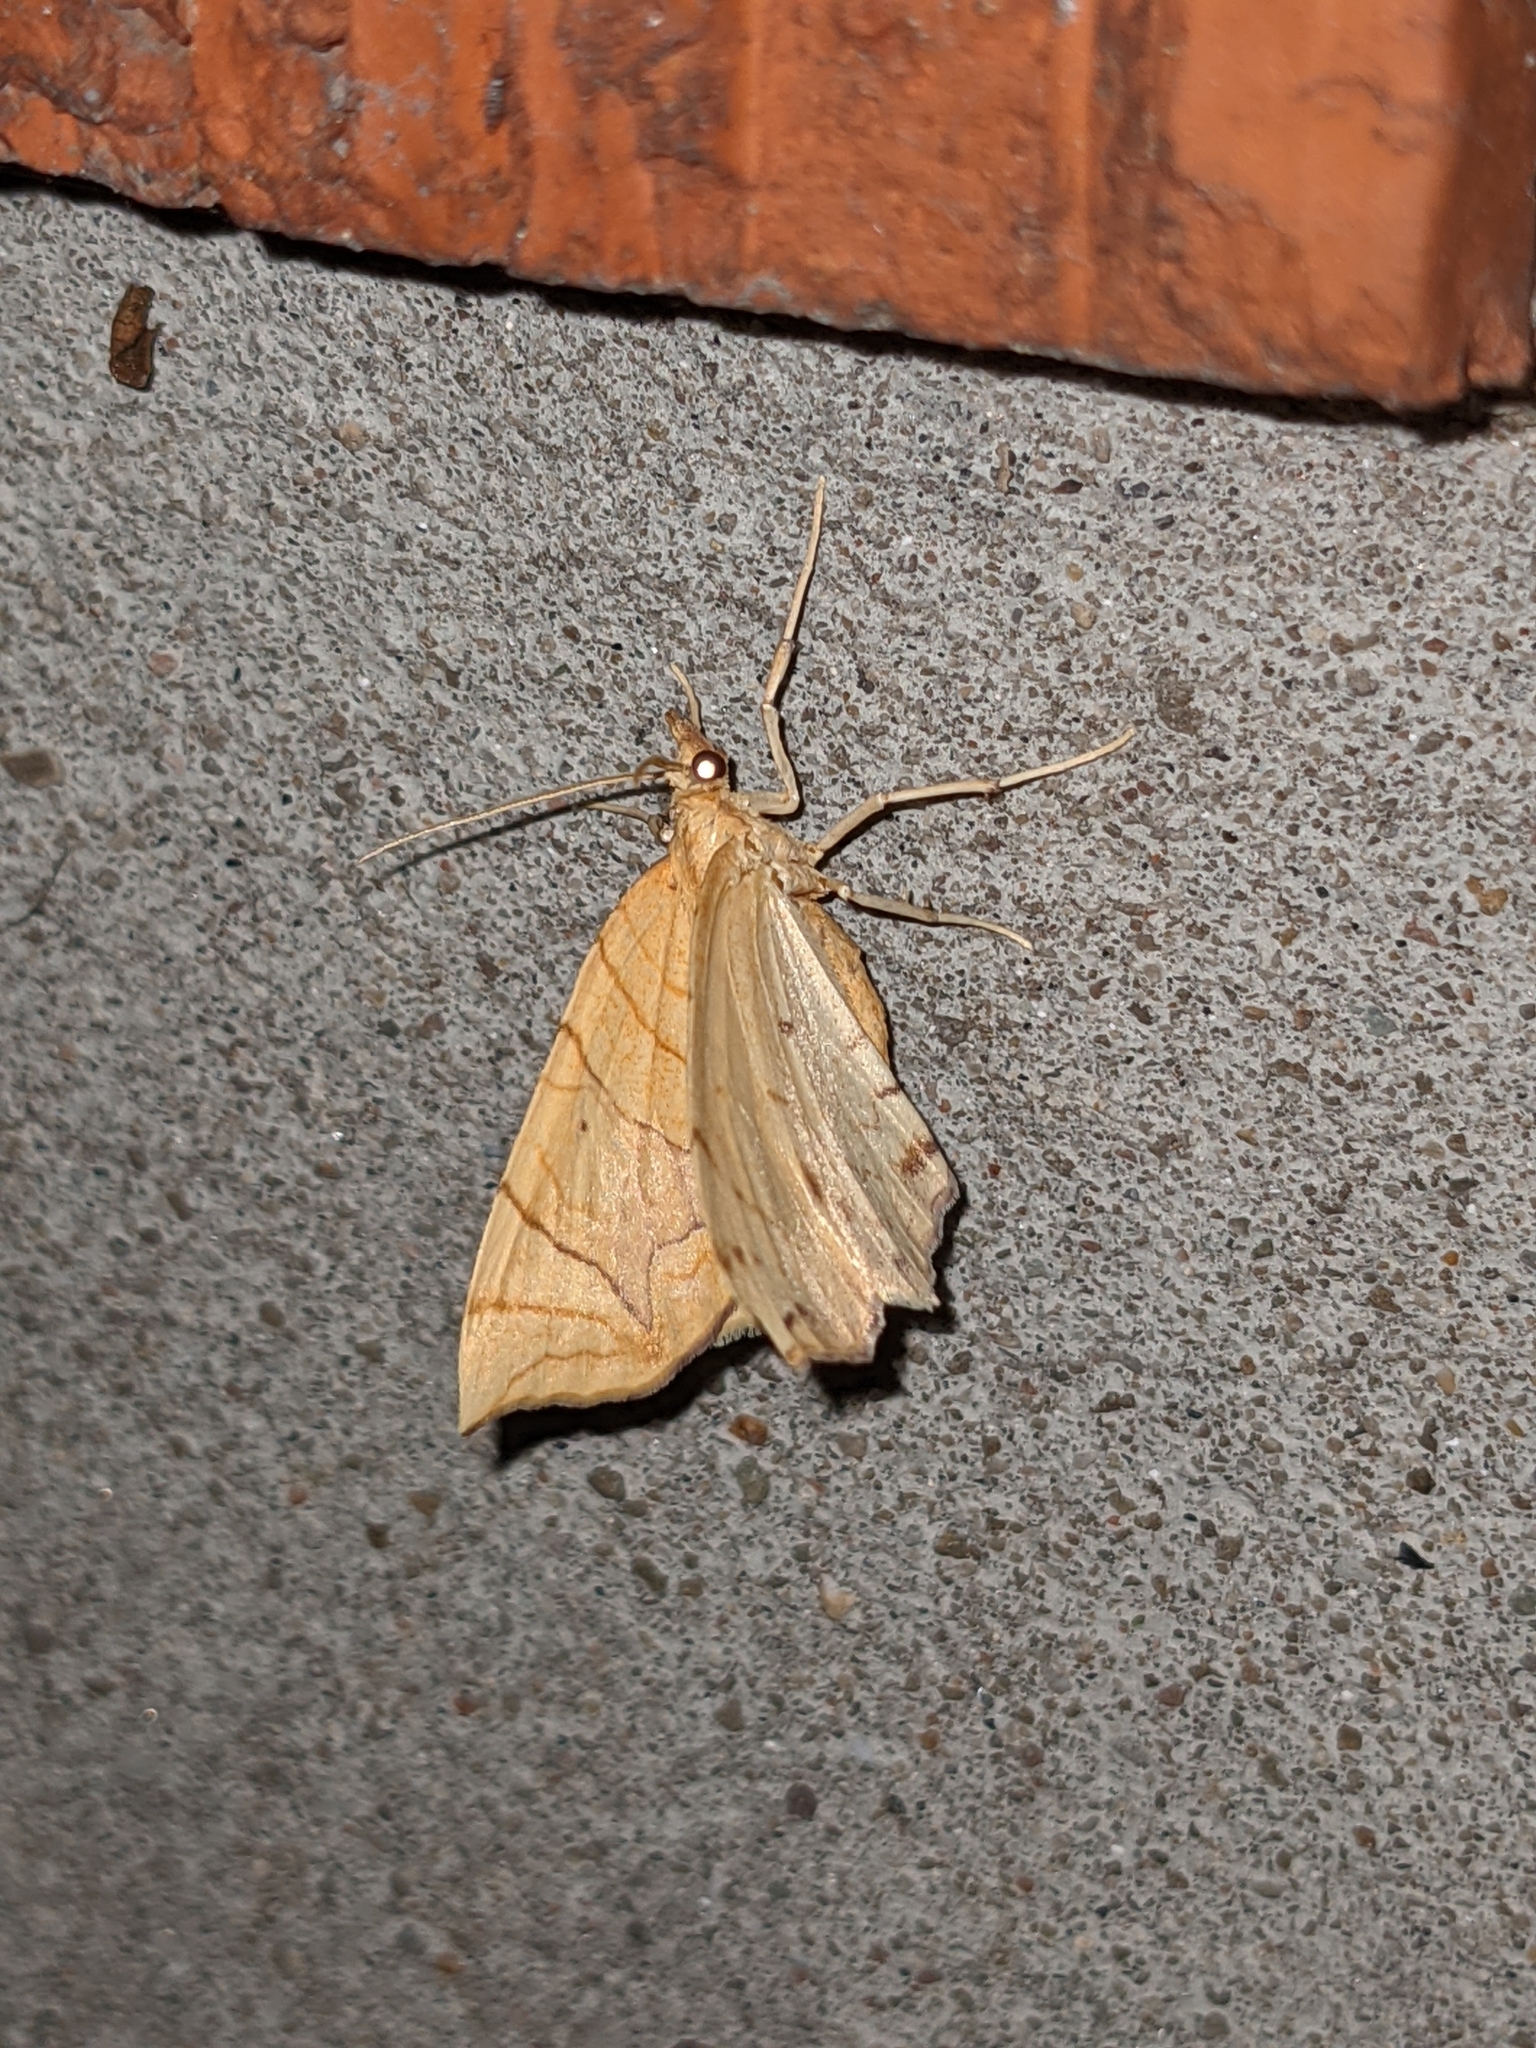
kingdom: Animalia
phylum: Arthropoda
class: Insecta
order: Lepidoptera
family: Geometridae
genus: Eulithis
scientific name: Eulithis
